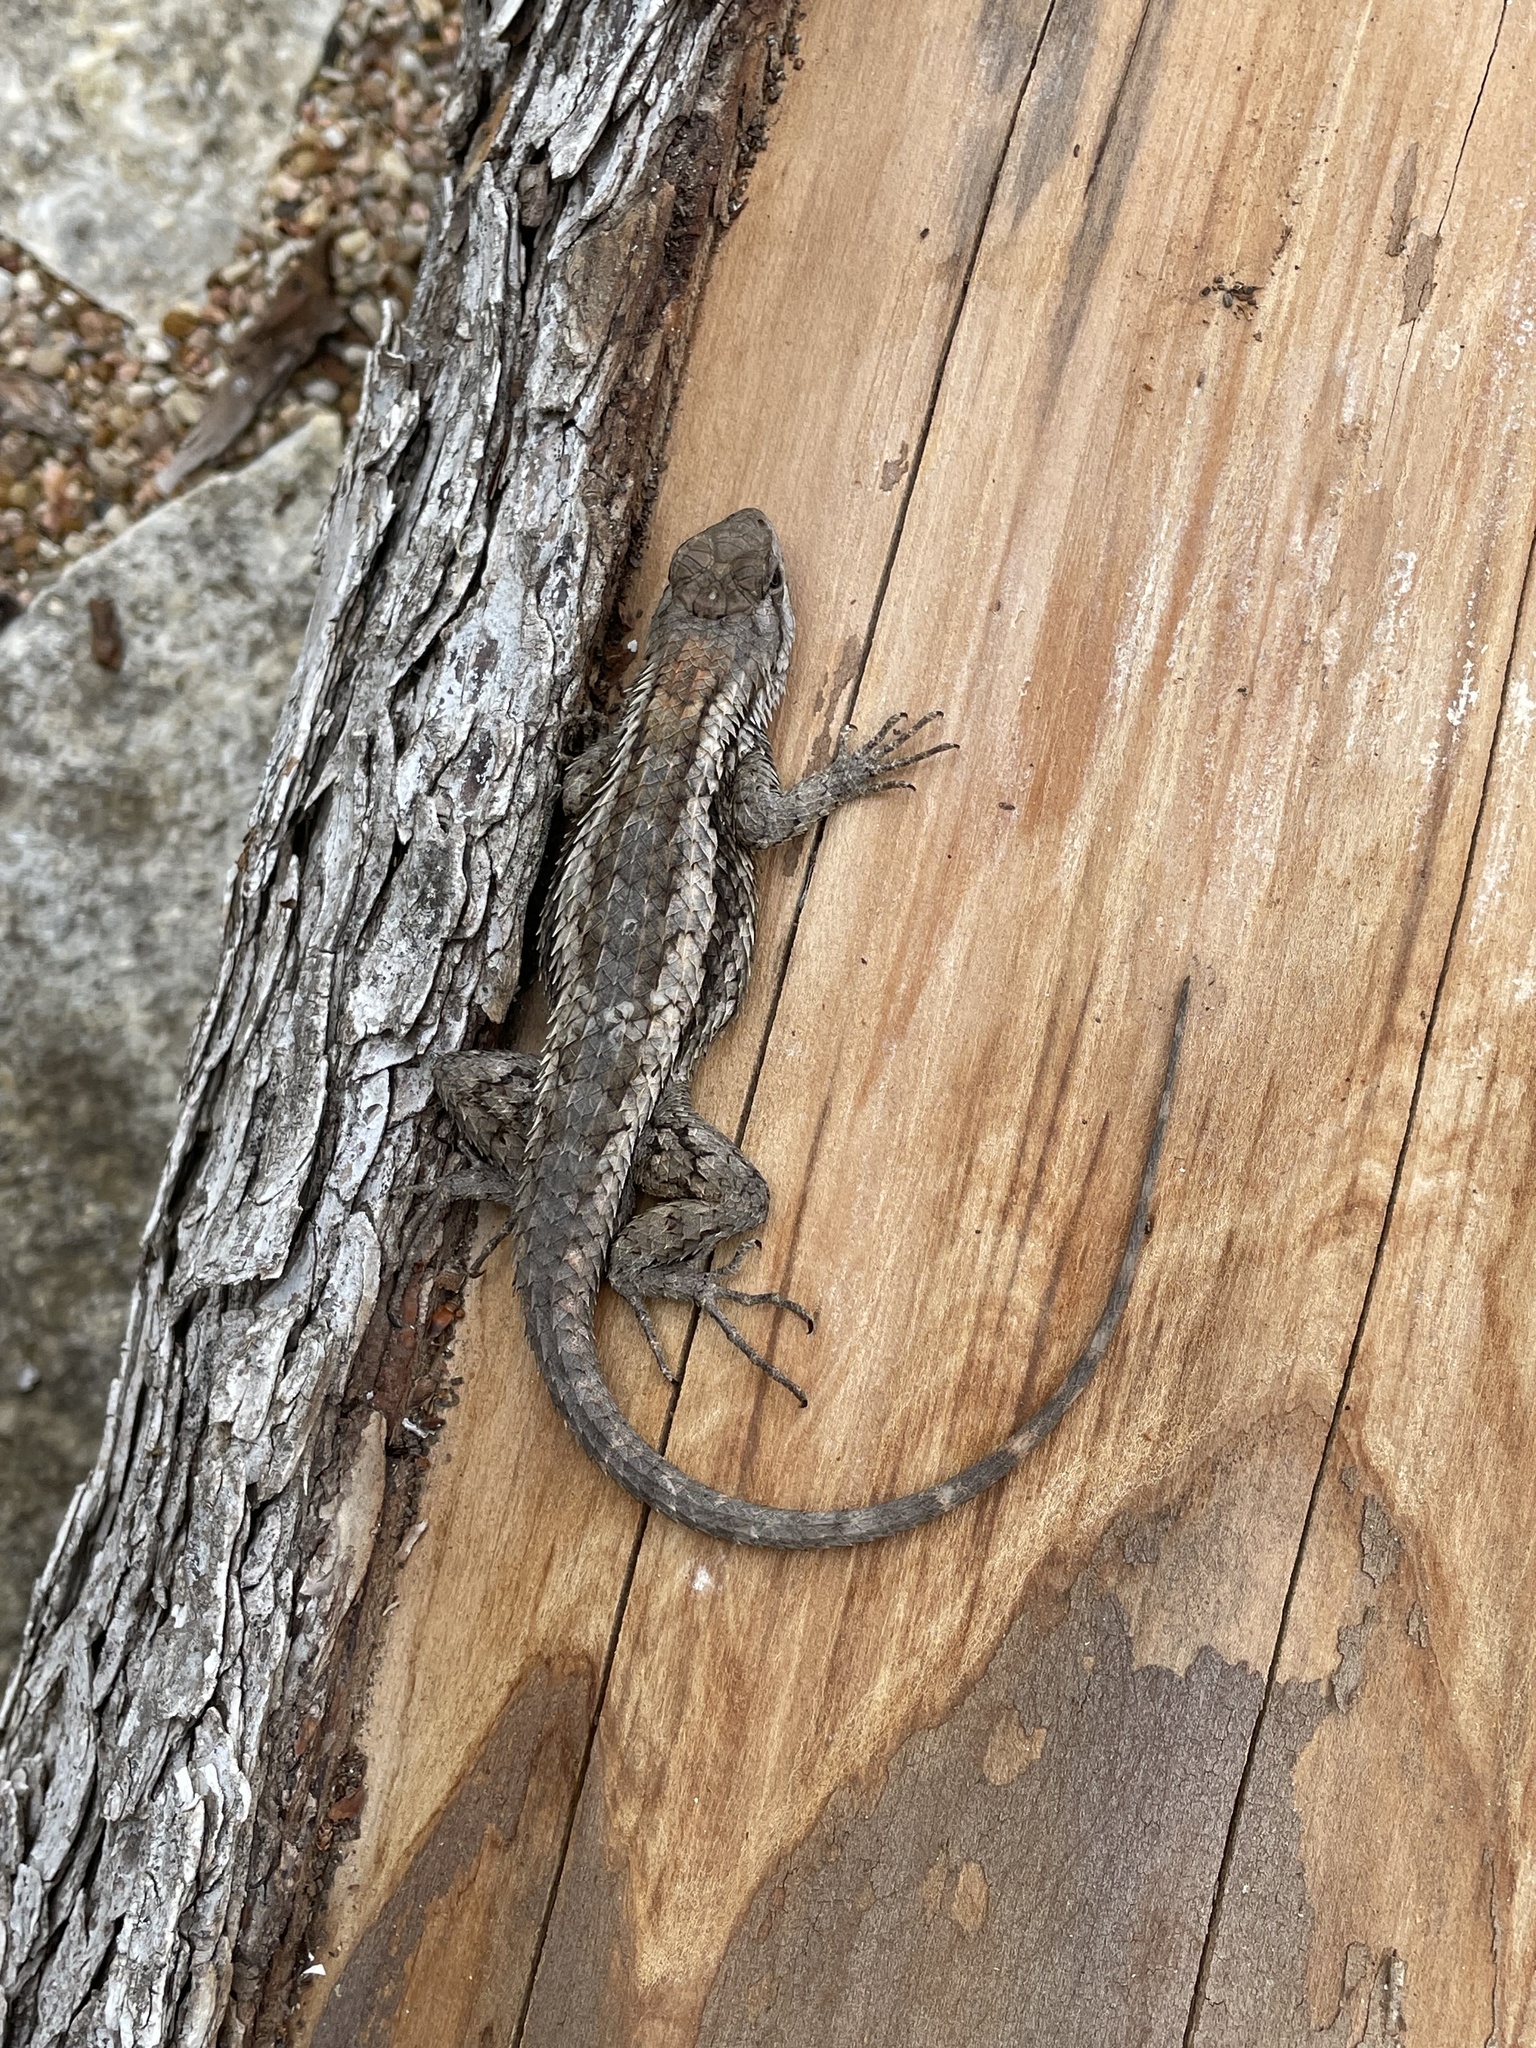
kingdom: Animalia
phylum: Chordata
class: Squamata
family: Phrynosomatidae
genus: Sceloporus
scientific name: Sceloporus olivaceus
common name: Texas spiny lizard
